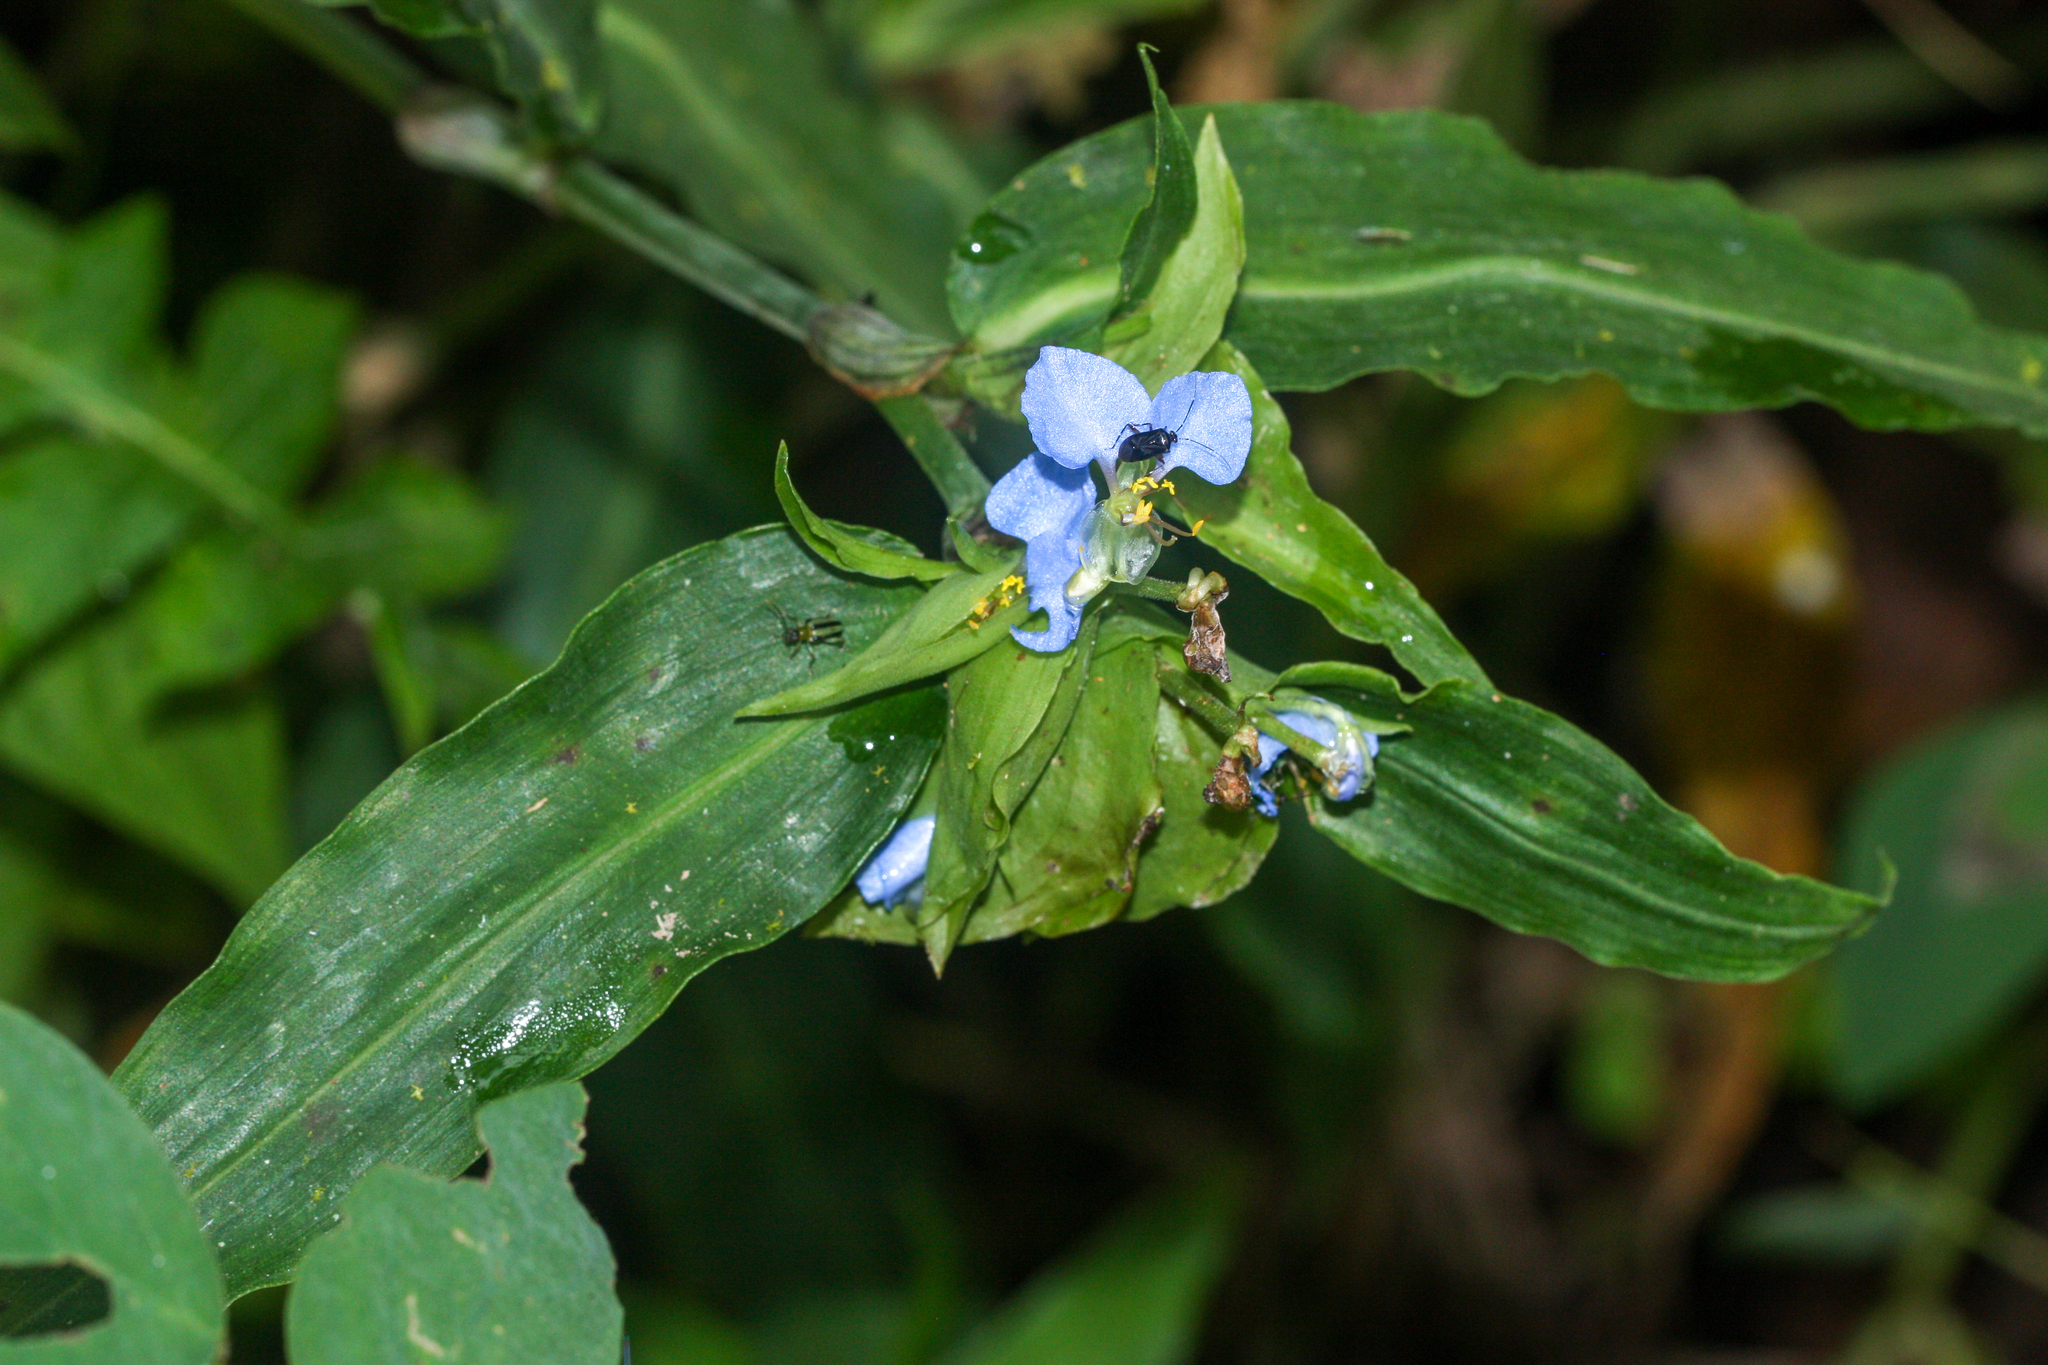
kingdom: Plantae
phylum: Tracheophyta
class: Liliopsida
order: Commelinales
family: Commelinaceae
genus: Commelina
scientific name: Commelina obliqua
